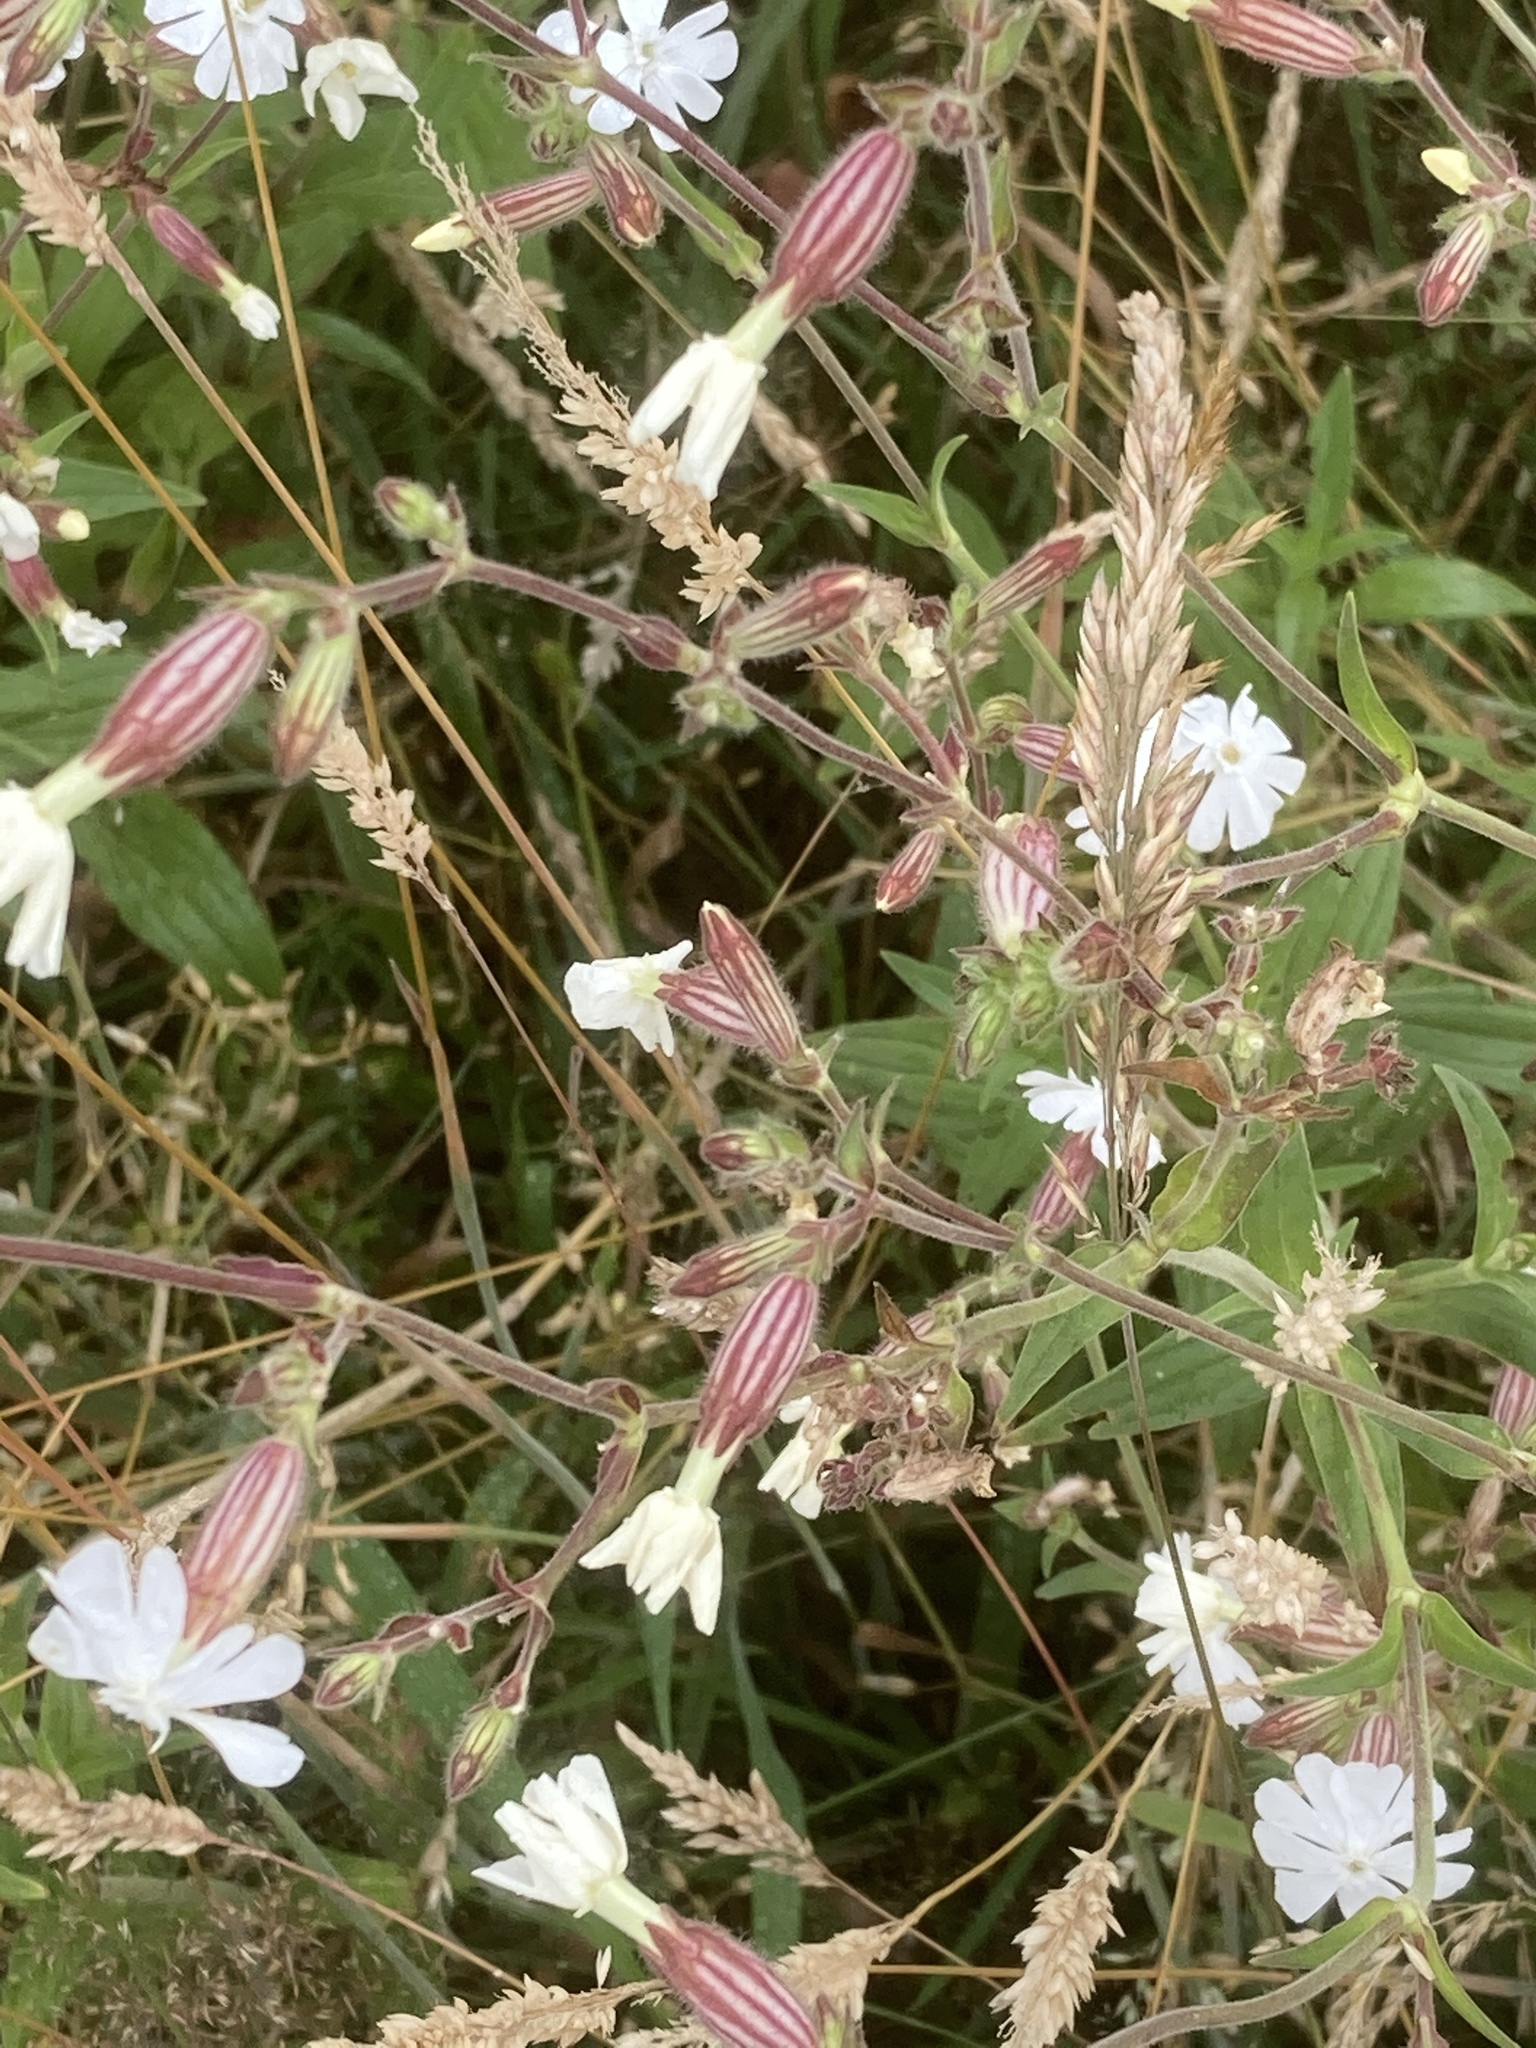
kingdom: Plantae
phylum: Tracheophyta
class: Magnoliopsida
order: Caryophyllales
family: Caryophyllaceae
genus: Silene
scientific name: Silene latifolia
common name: White campion
